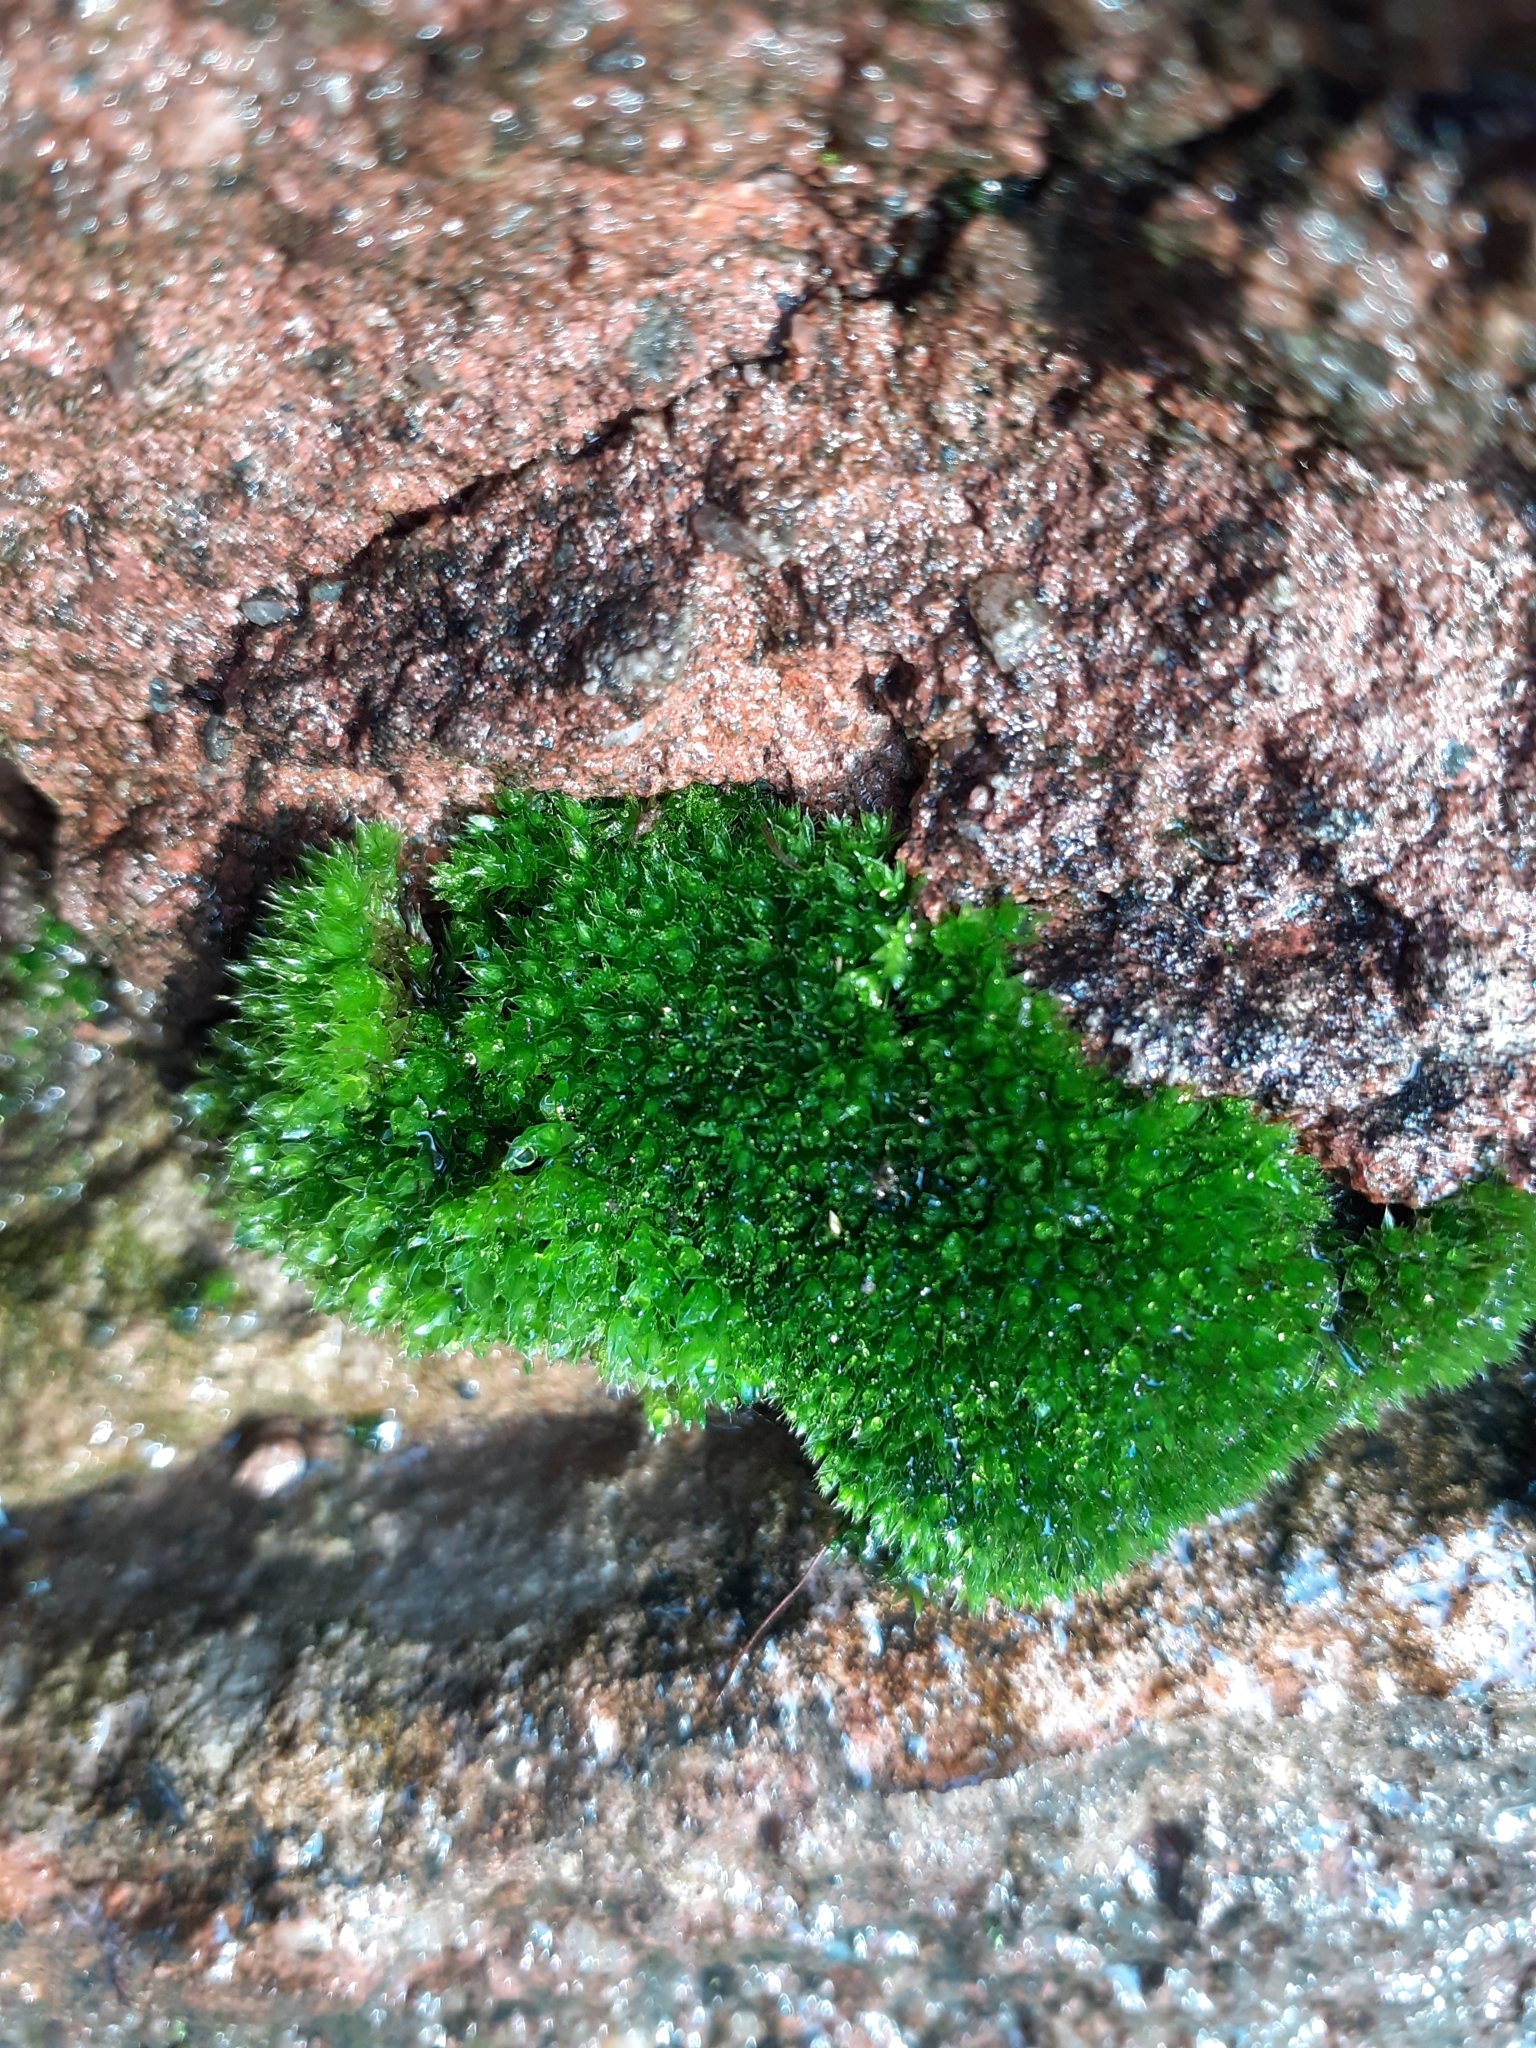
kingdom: Plantae
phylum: Bryophyta
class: Bryopsida
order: Bryales
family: Bryaceae
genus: Rosulabryum
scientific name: Rosulabryum capillare
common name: Capillary thread-moss
